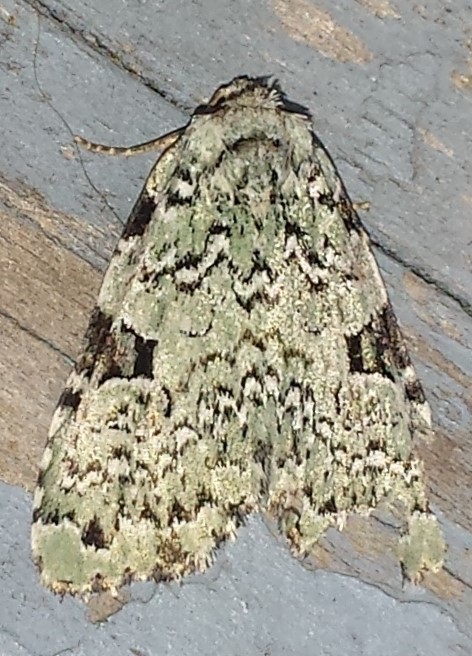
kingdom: Animalia
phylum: Arthropoda
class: Insecta
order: Lepidoptera
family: Noctuidae
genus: Leuconycta
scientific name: Leuconycta diphteroides
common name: Green leuconycta moth
